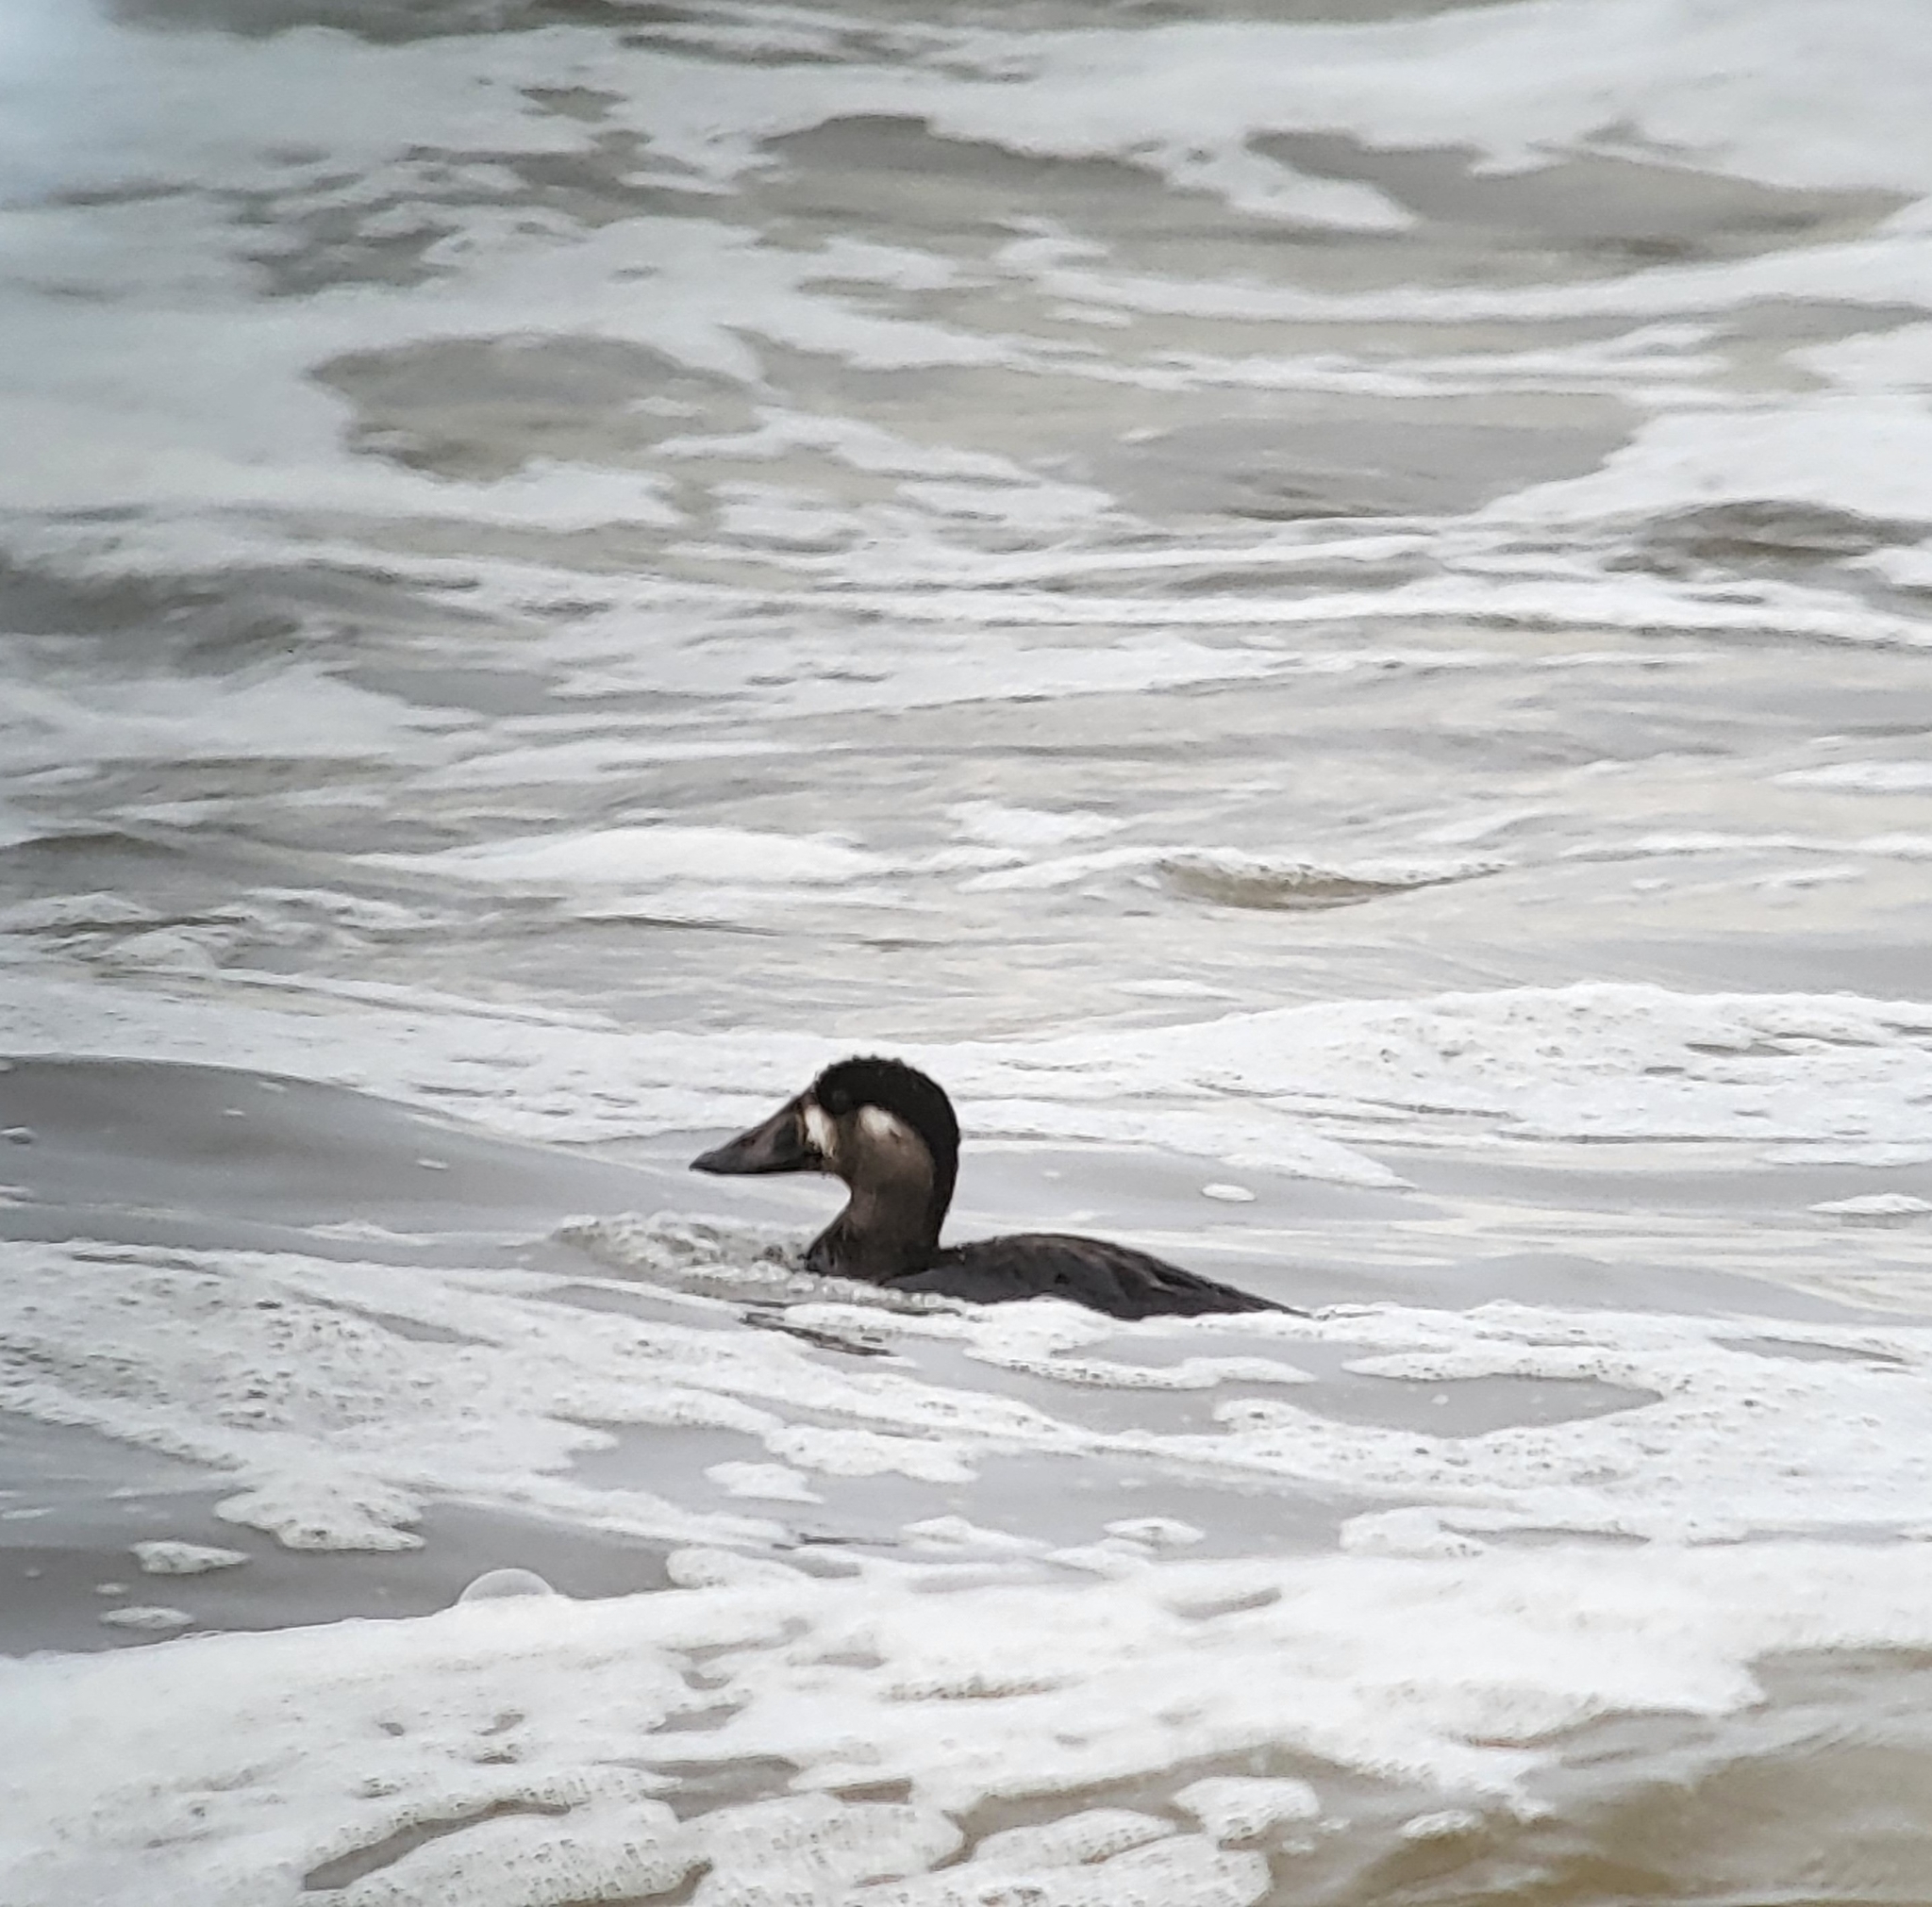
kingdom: Animalia
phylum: Chordata
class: Aves
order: Anseriformes
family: Anatidae
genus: Melanitta
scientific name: Melanitta perspicillata
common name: Surf scoter
